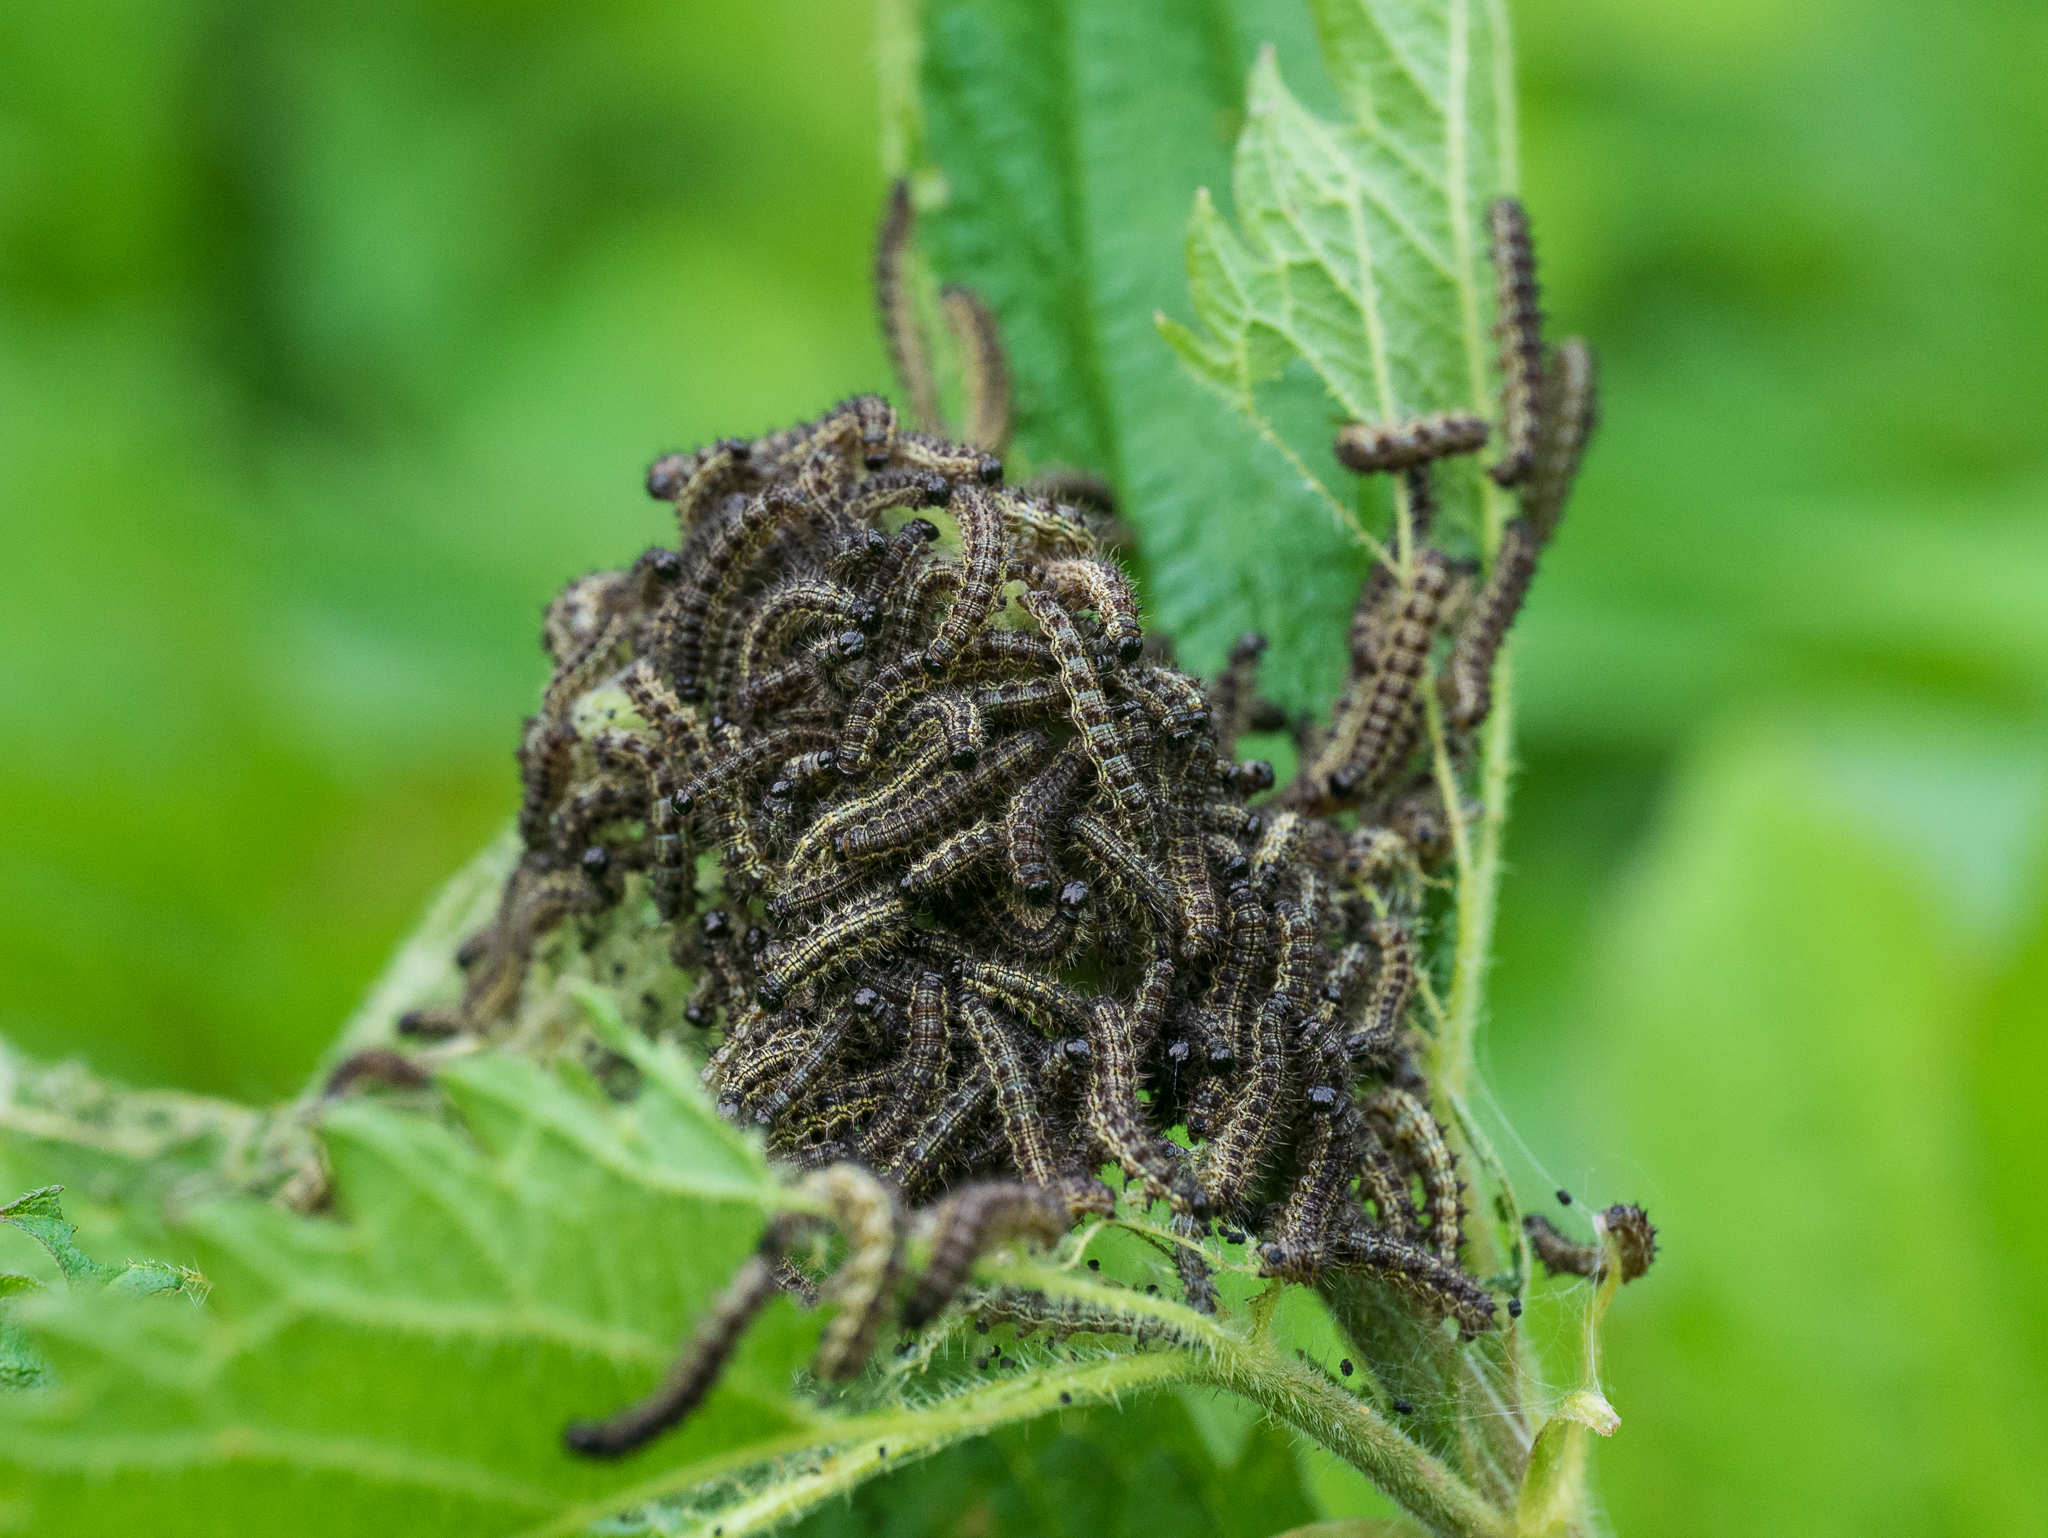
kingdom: Animalia
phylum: Arthropoda
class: Insecta
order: Lepidoptera
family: Nymphalidae
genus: Aglais
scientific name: Aglais urticae
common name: Small tortoiseshell
